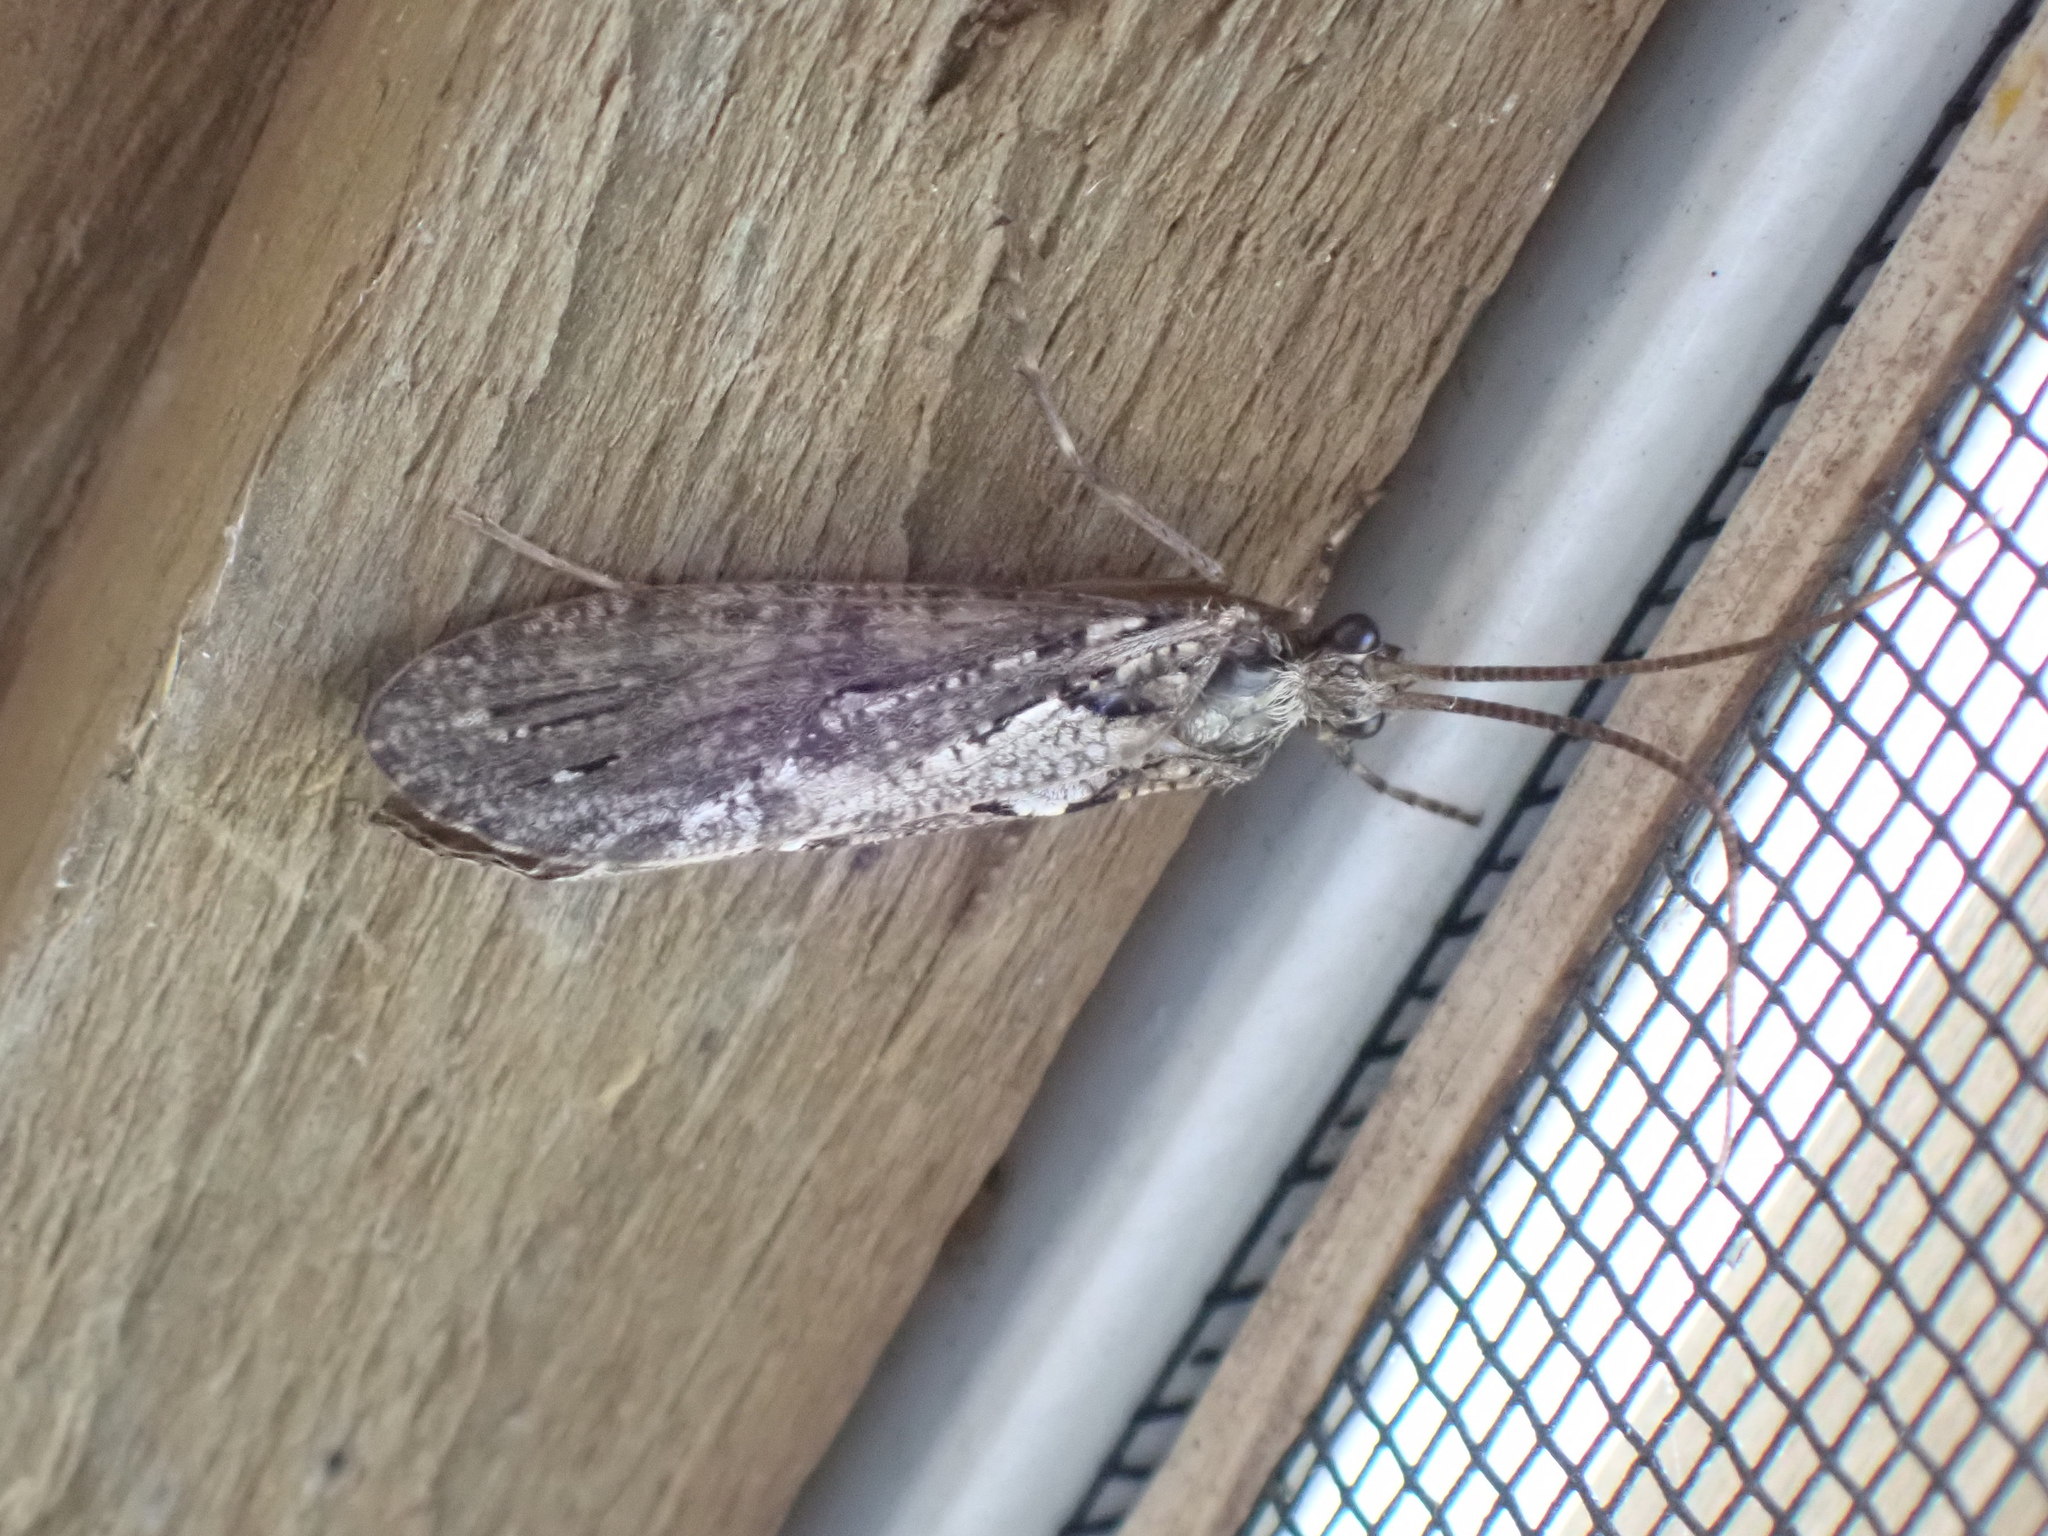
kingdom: Animalia
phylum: Arthropoda
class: Insecta
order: Trichoptera
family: Phryganeidae
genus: Phryganea
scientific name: Phryganea cinerea
